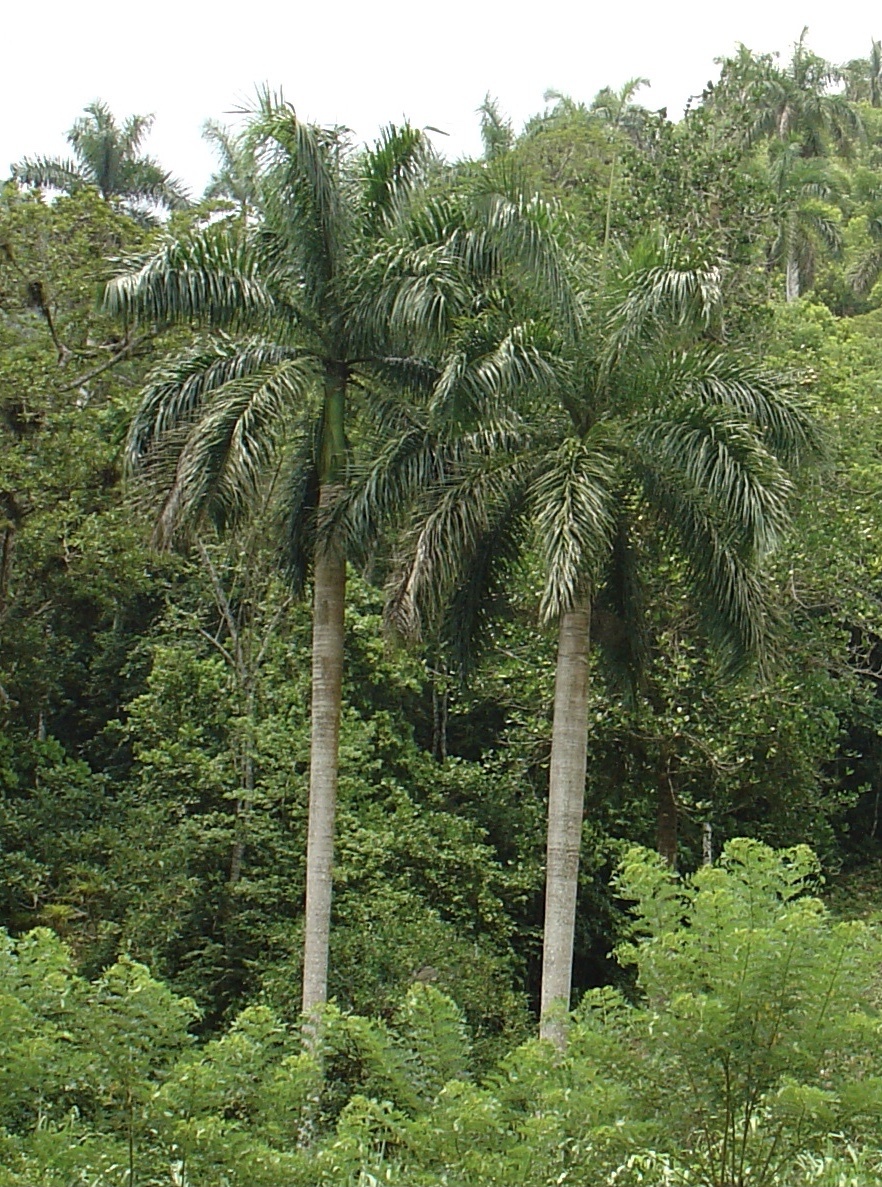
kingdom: Plantae
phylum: Tracheophyta
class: Liliopsida
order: Arecales
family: Arecaceae
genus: Roystonea
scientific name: Roystonea regia
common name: Florida royal palm
